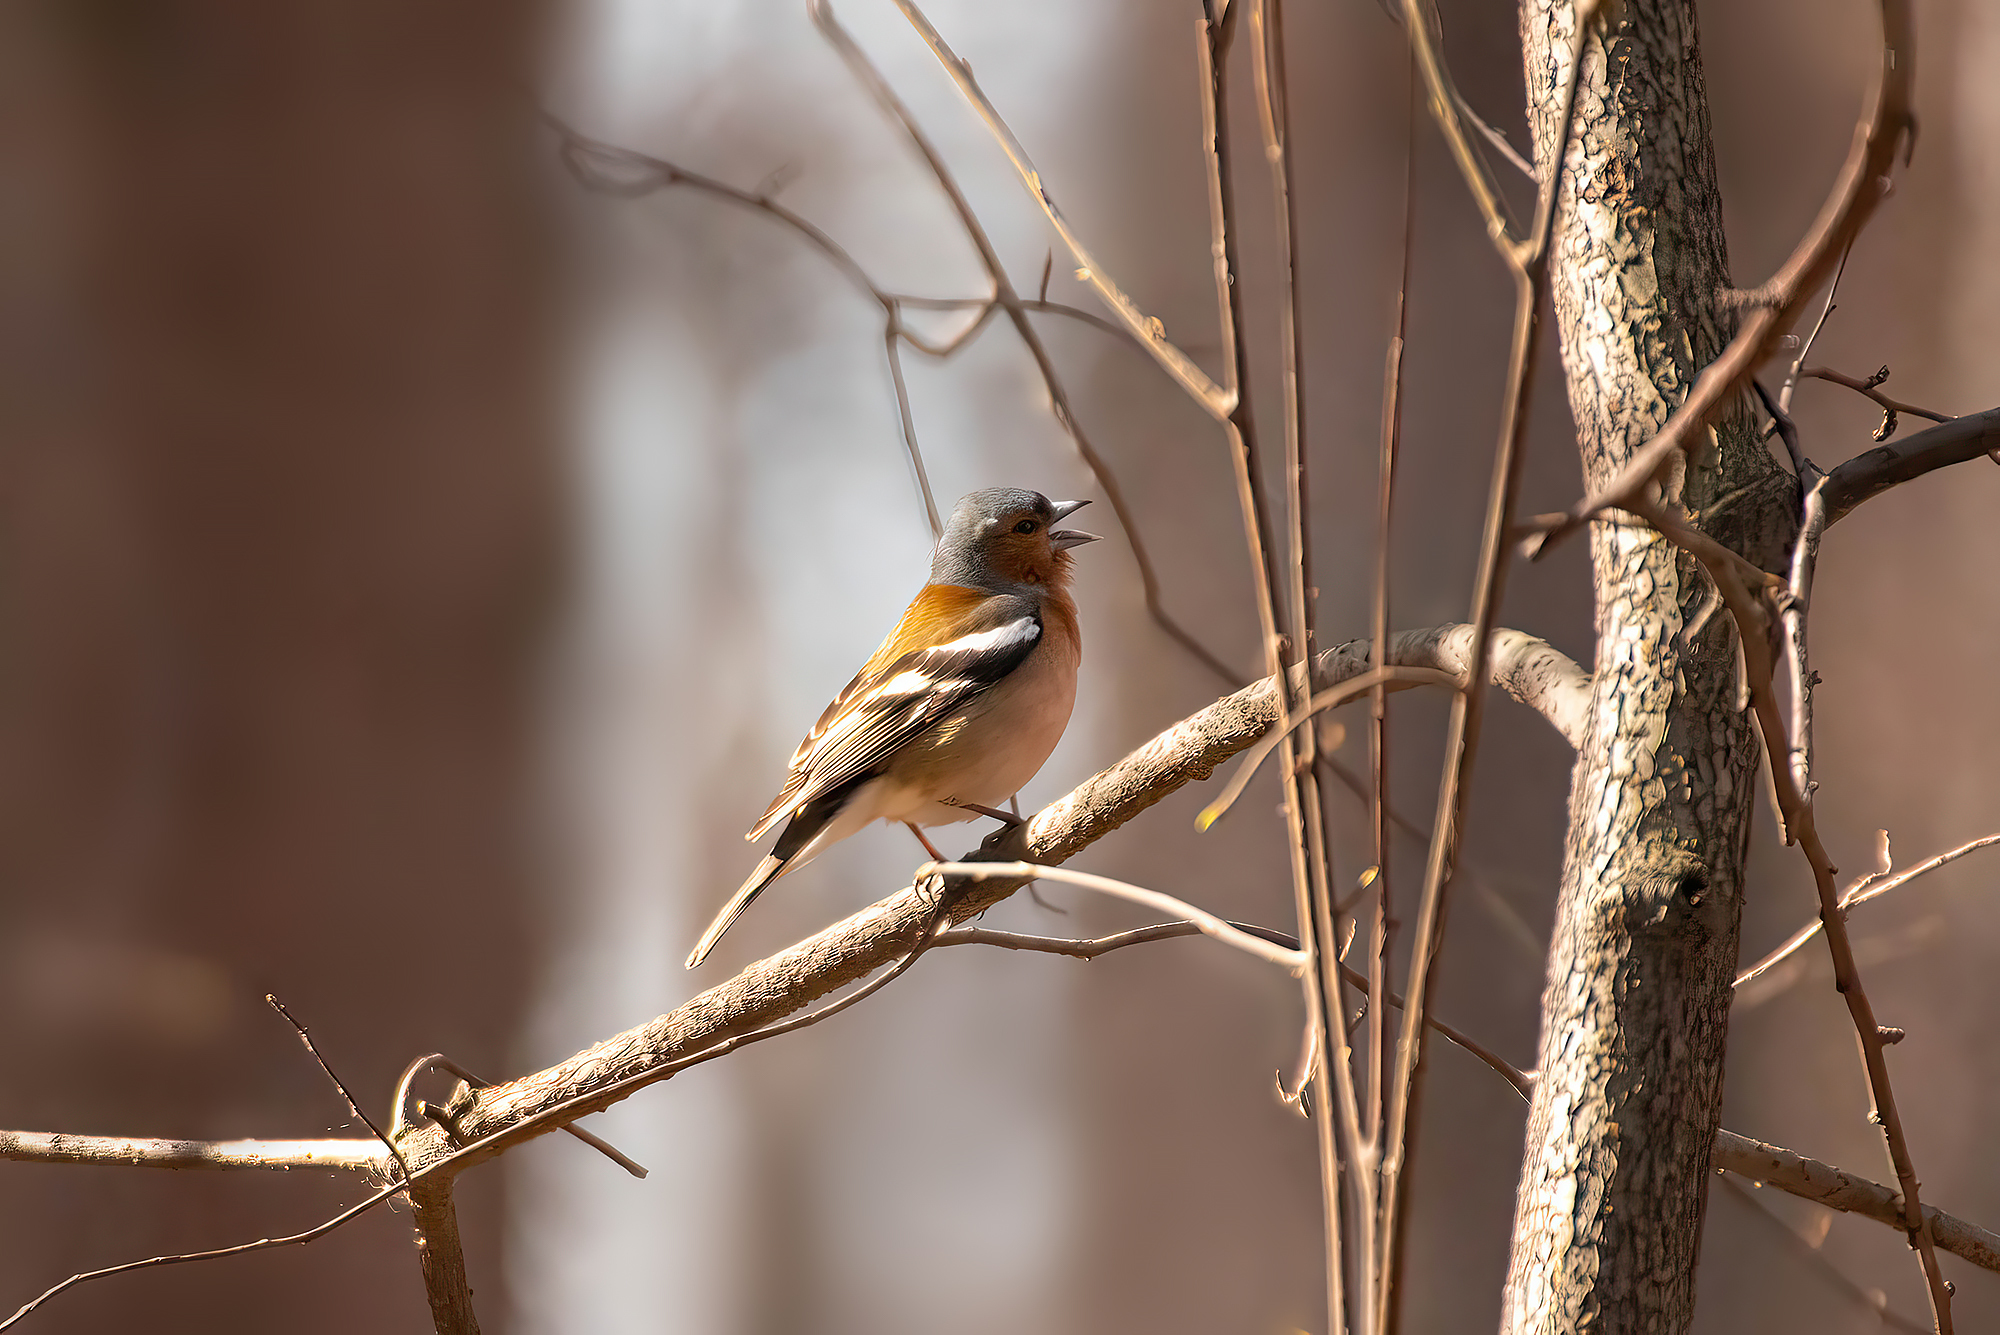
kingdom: Animalia
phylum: Chordata
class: Aves
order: Passeriformes
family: Fringillidae
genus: Fringilla
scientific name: Fringilla coelebs
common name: Common chaffinch
